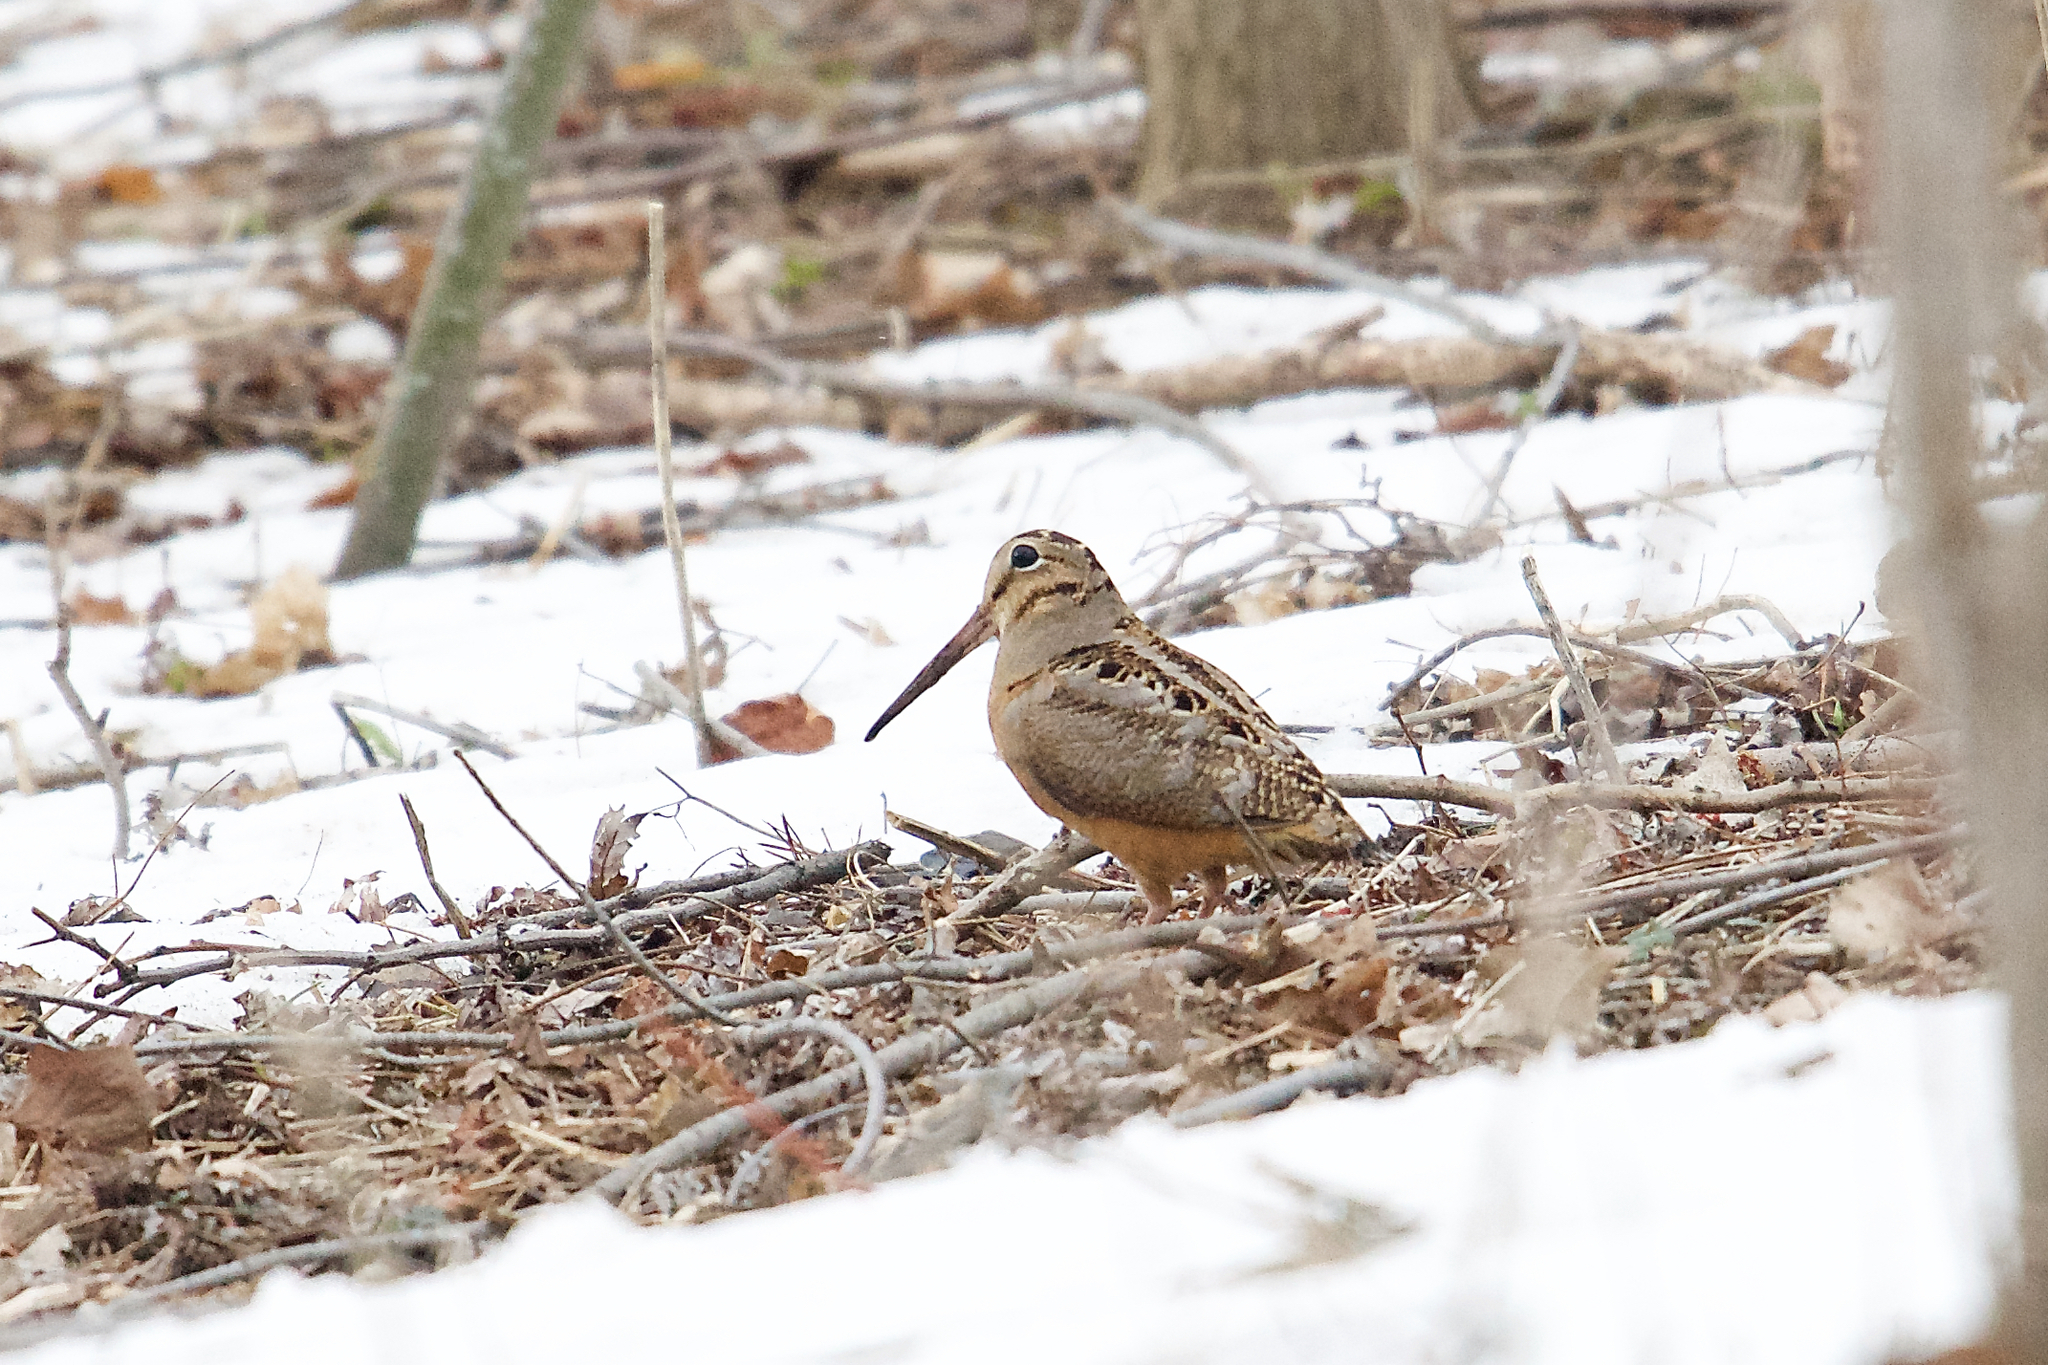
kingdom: Animalia
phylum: Chordata
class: Aves
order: Charadriiformes
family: Scolopacidae
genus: Scolopax
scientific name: Scolopax minor
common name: American woodcock
